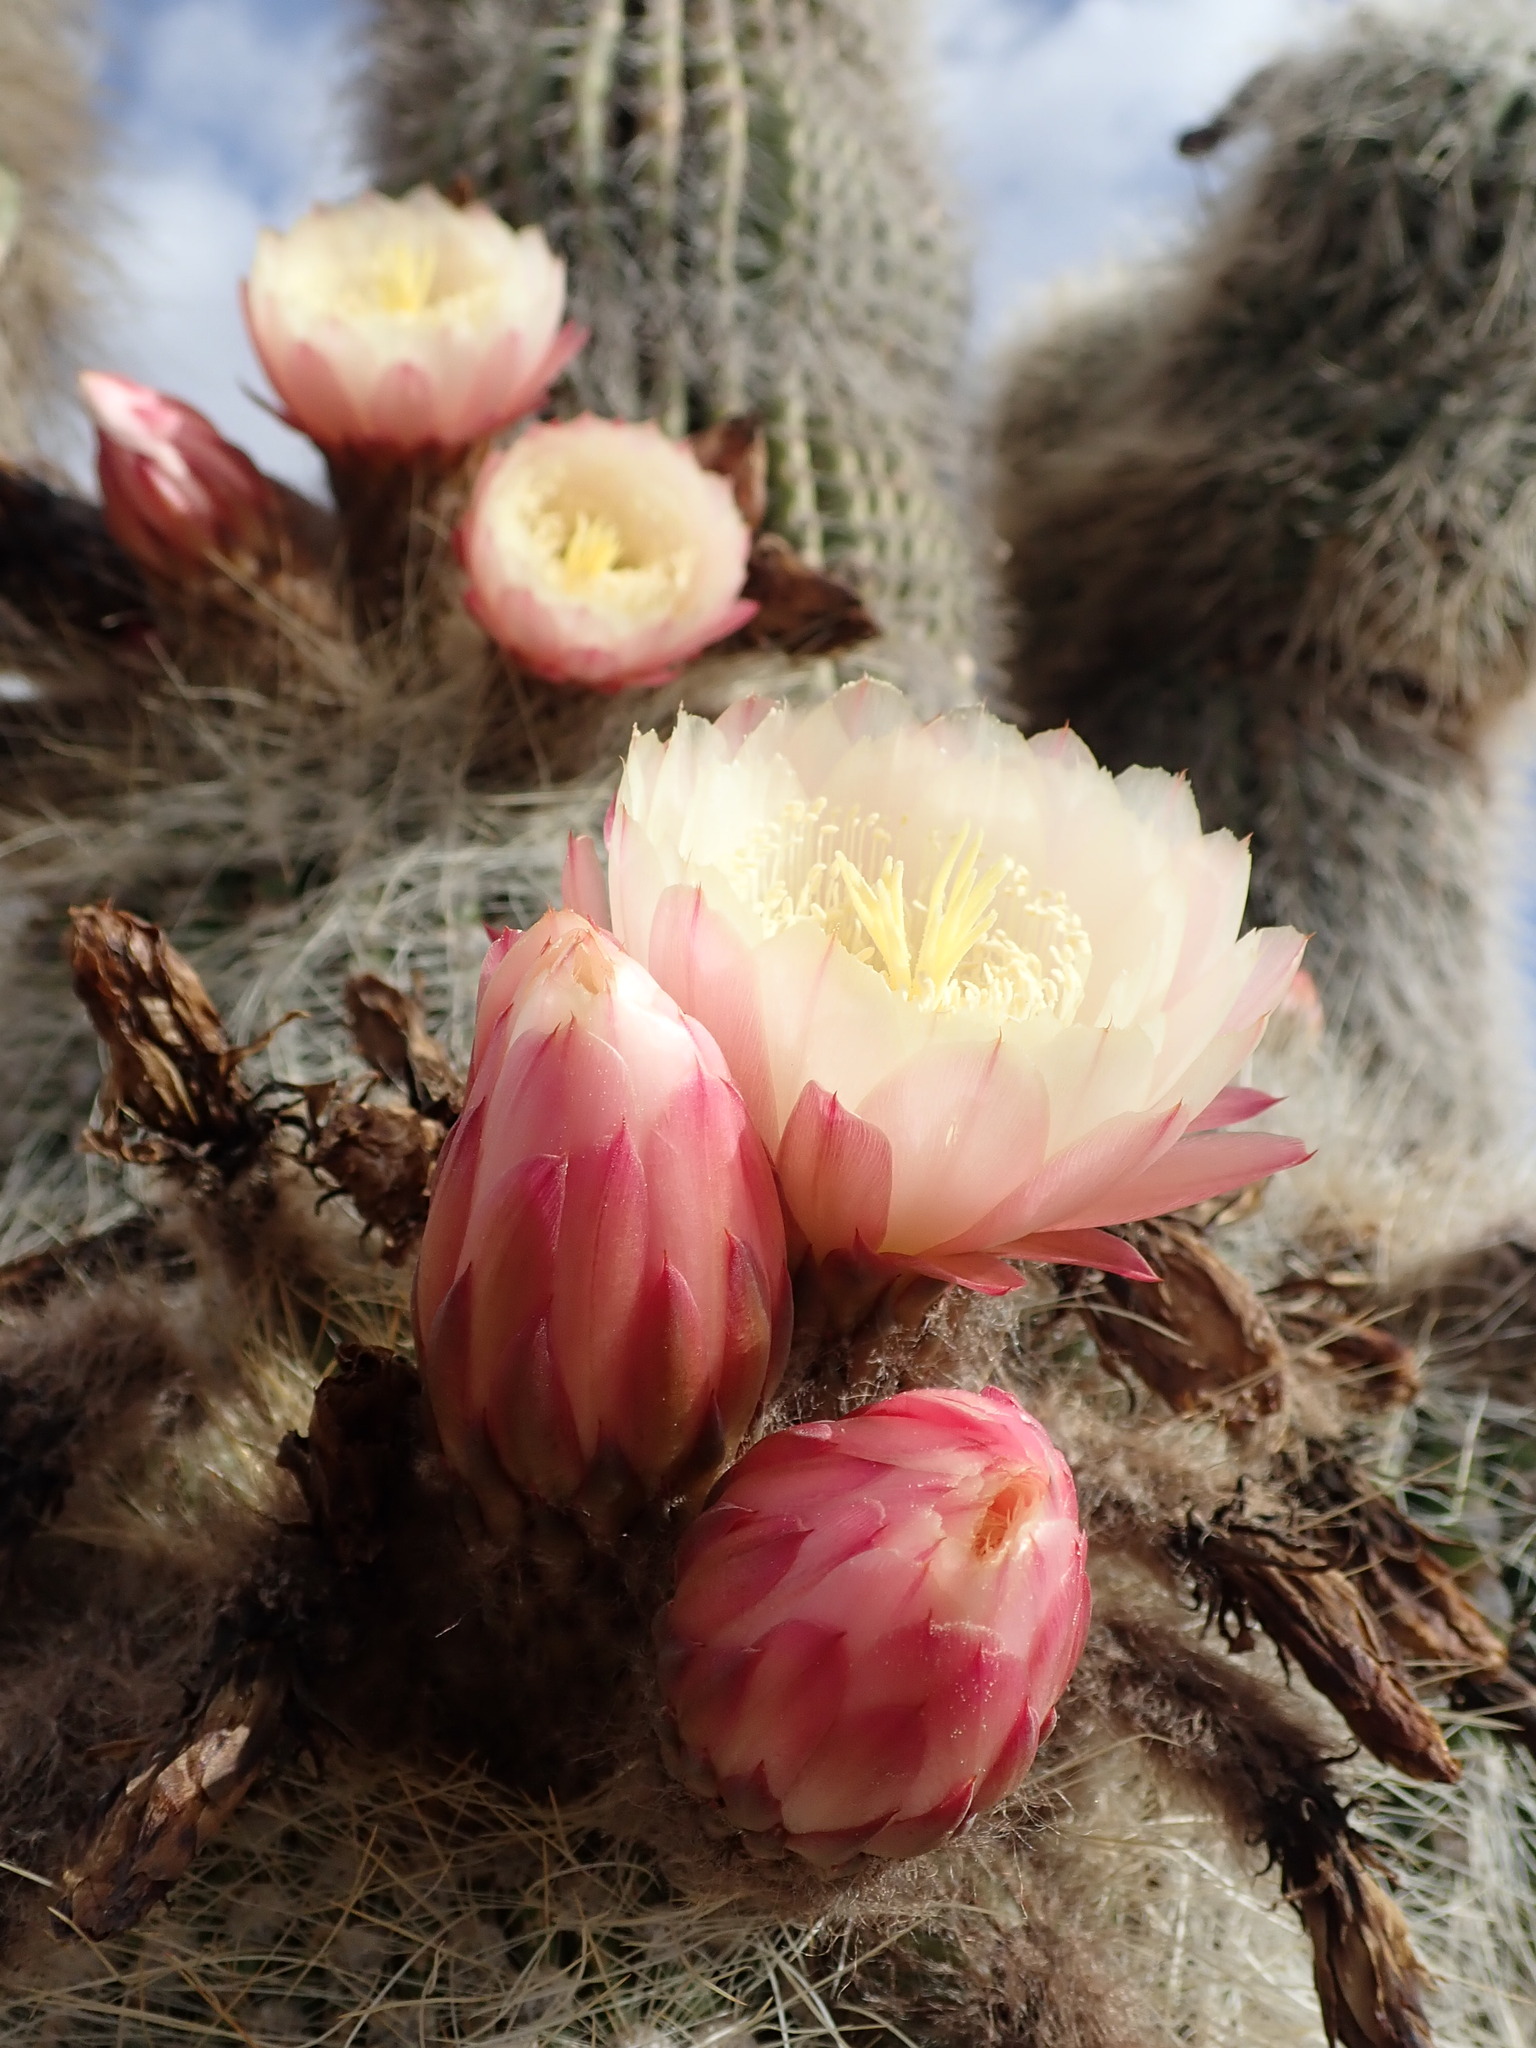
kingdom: Plantae
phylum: Tracheophyta
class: Magnoliopsida
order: Caryophyllales
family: Cactaceae
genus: Soehrensia
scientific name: Soehrensia tarijensis
